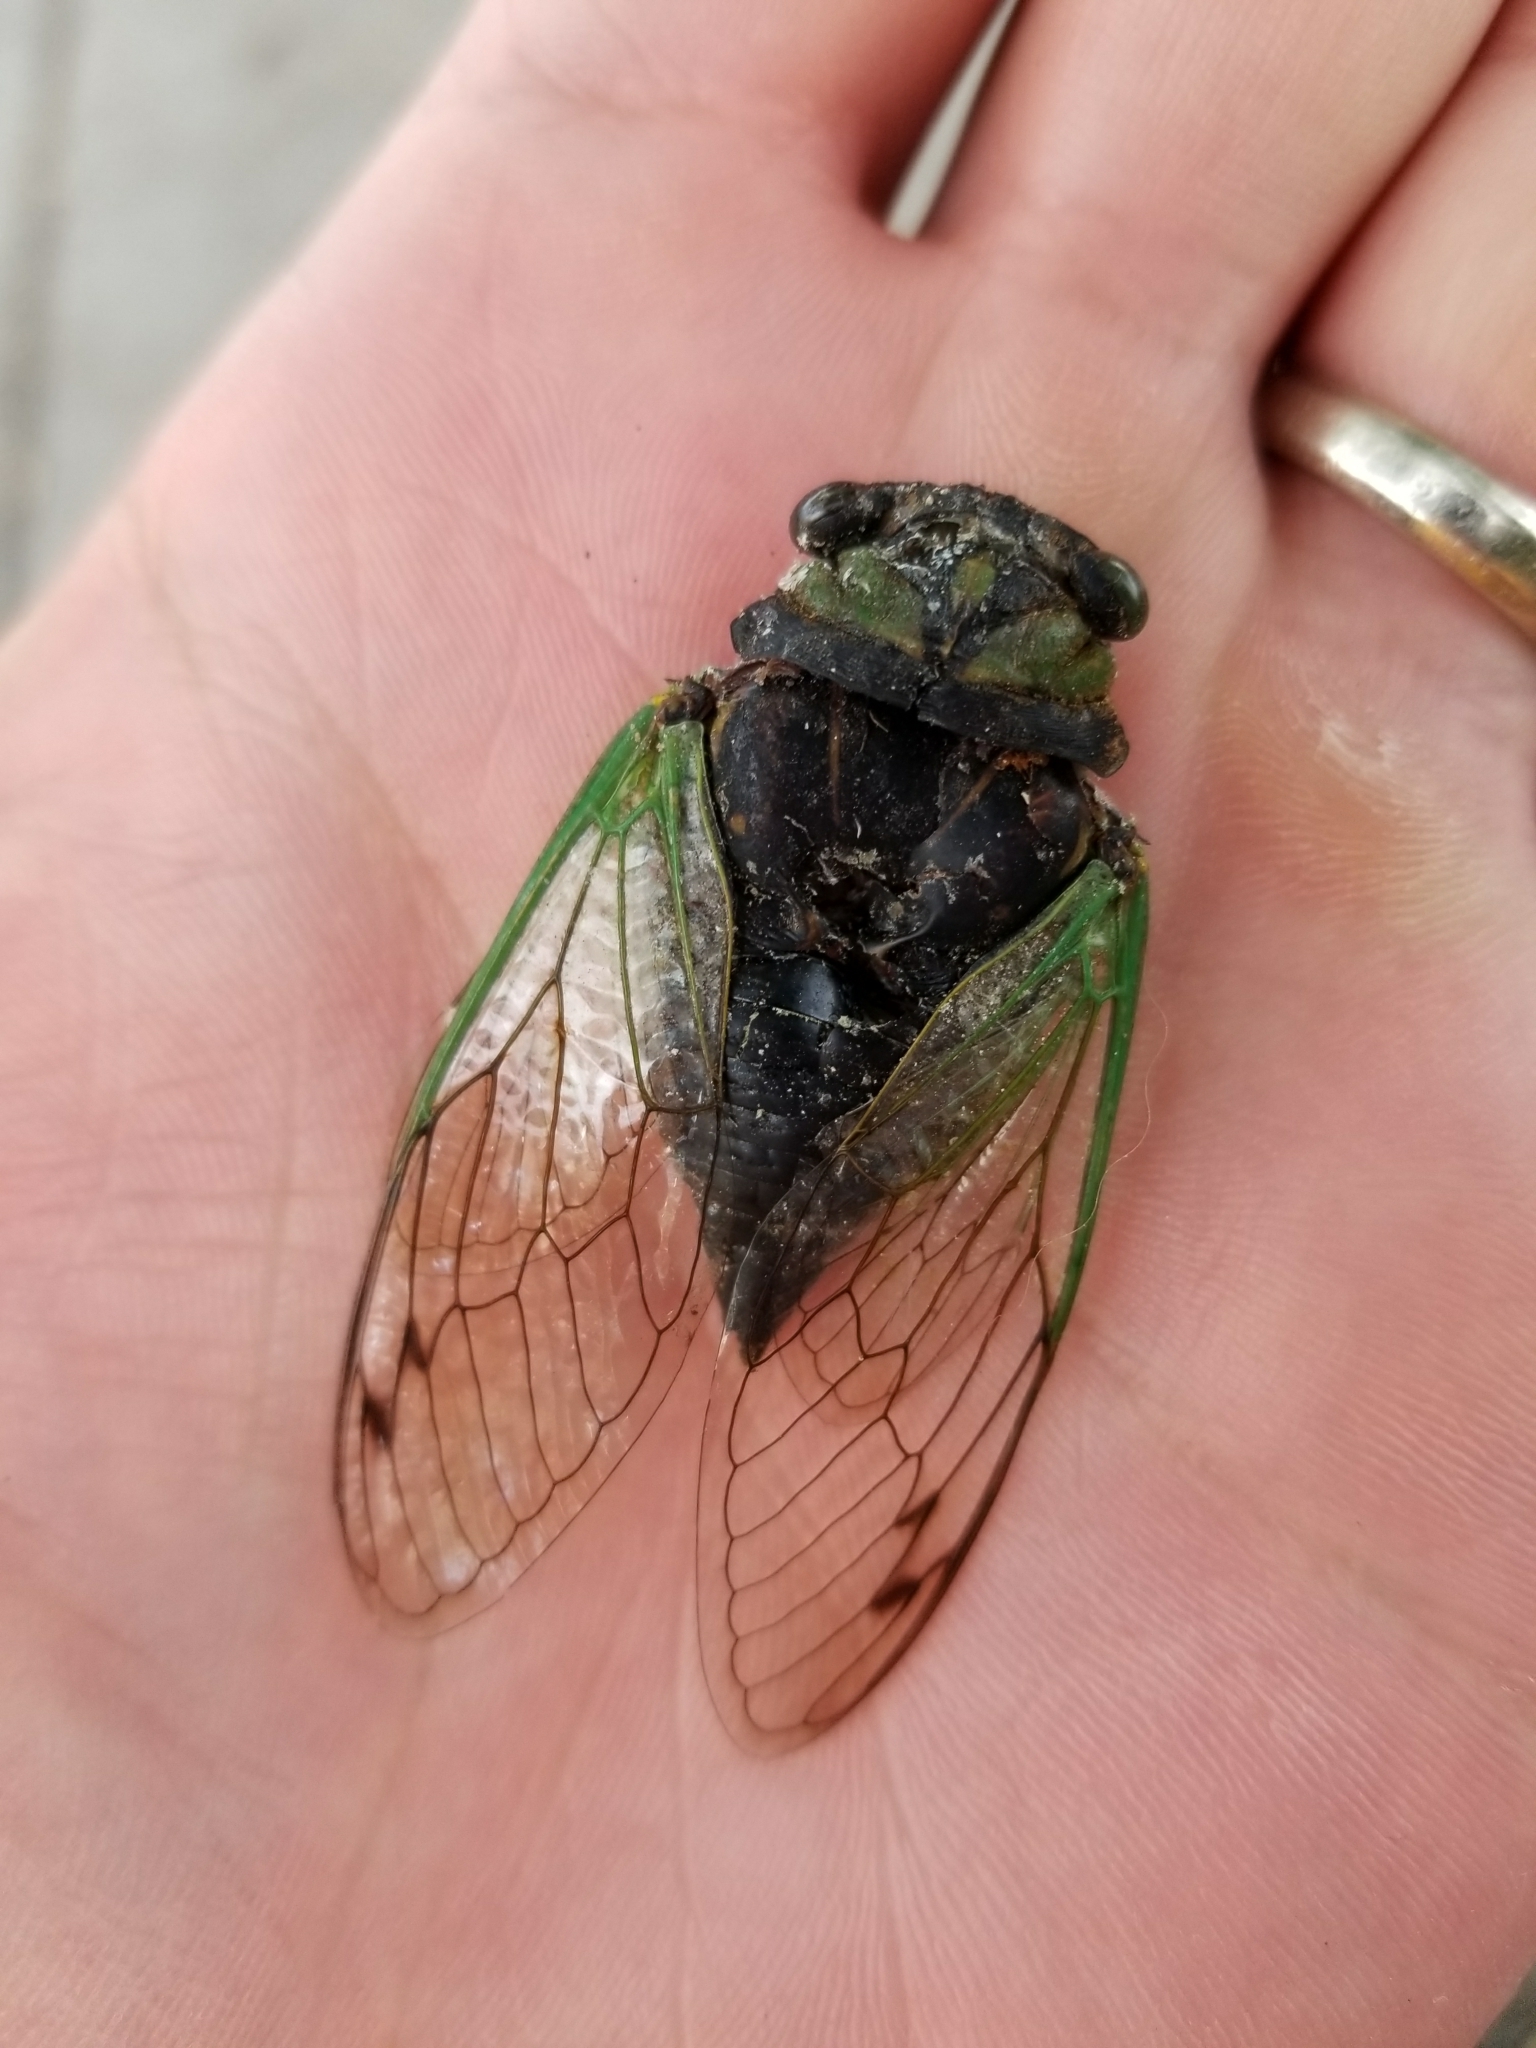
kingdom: Animalia
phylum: Arthropoda
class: Insecta
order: Hemiptera
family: Cicadidae
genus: Neotibicen
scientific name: Neotibicen tibicen
